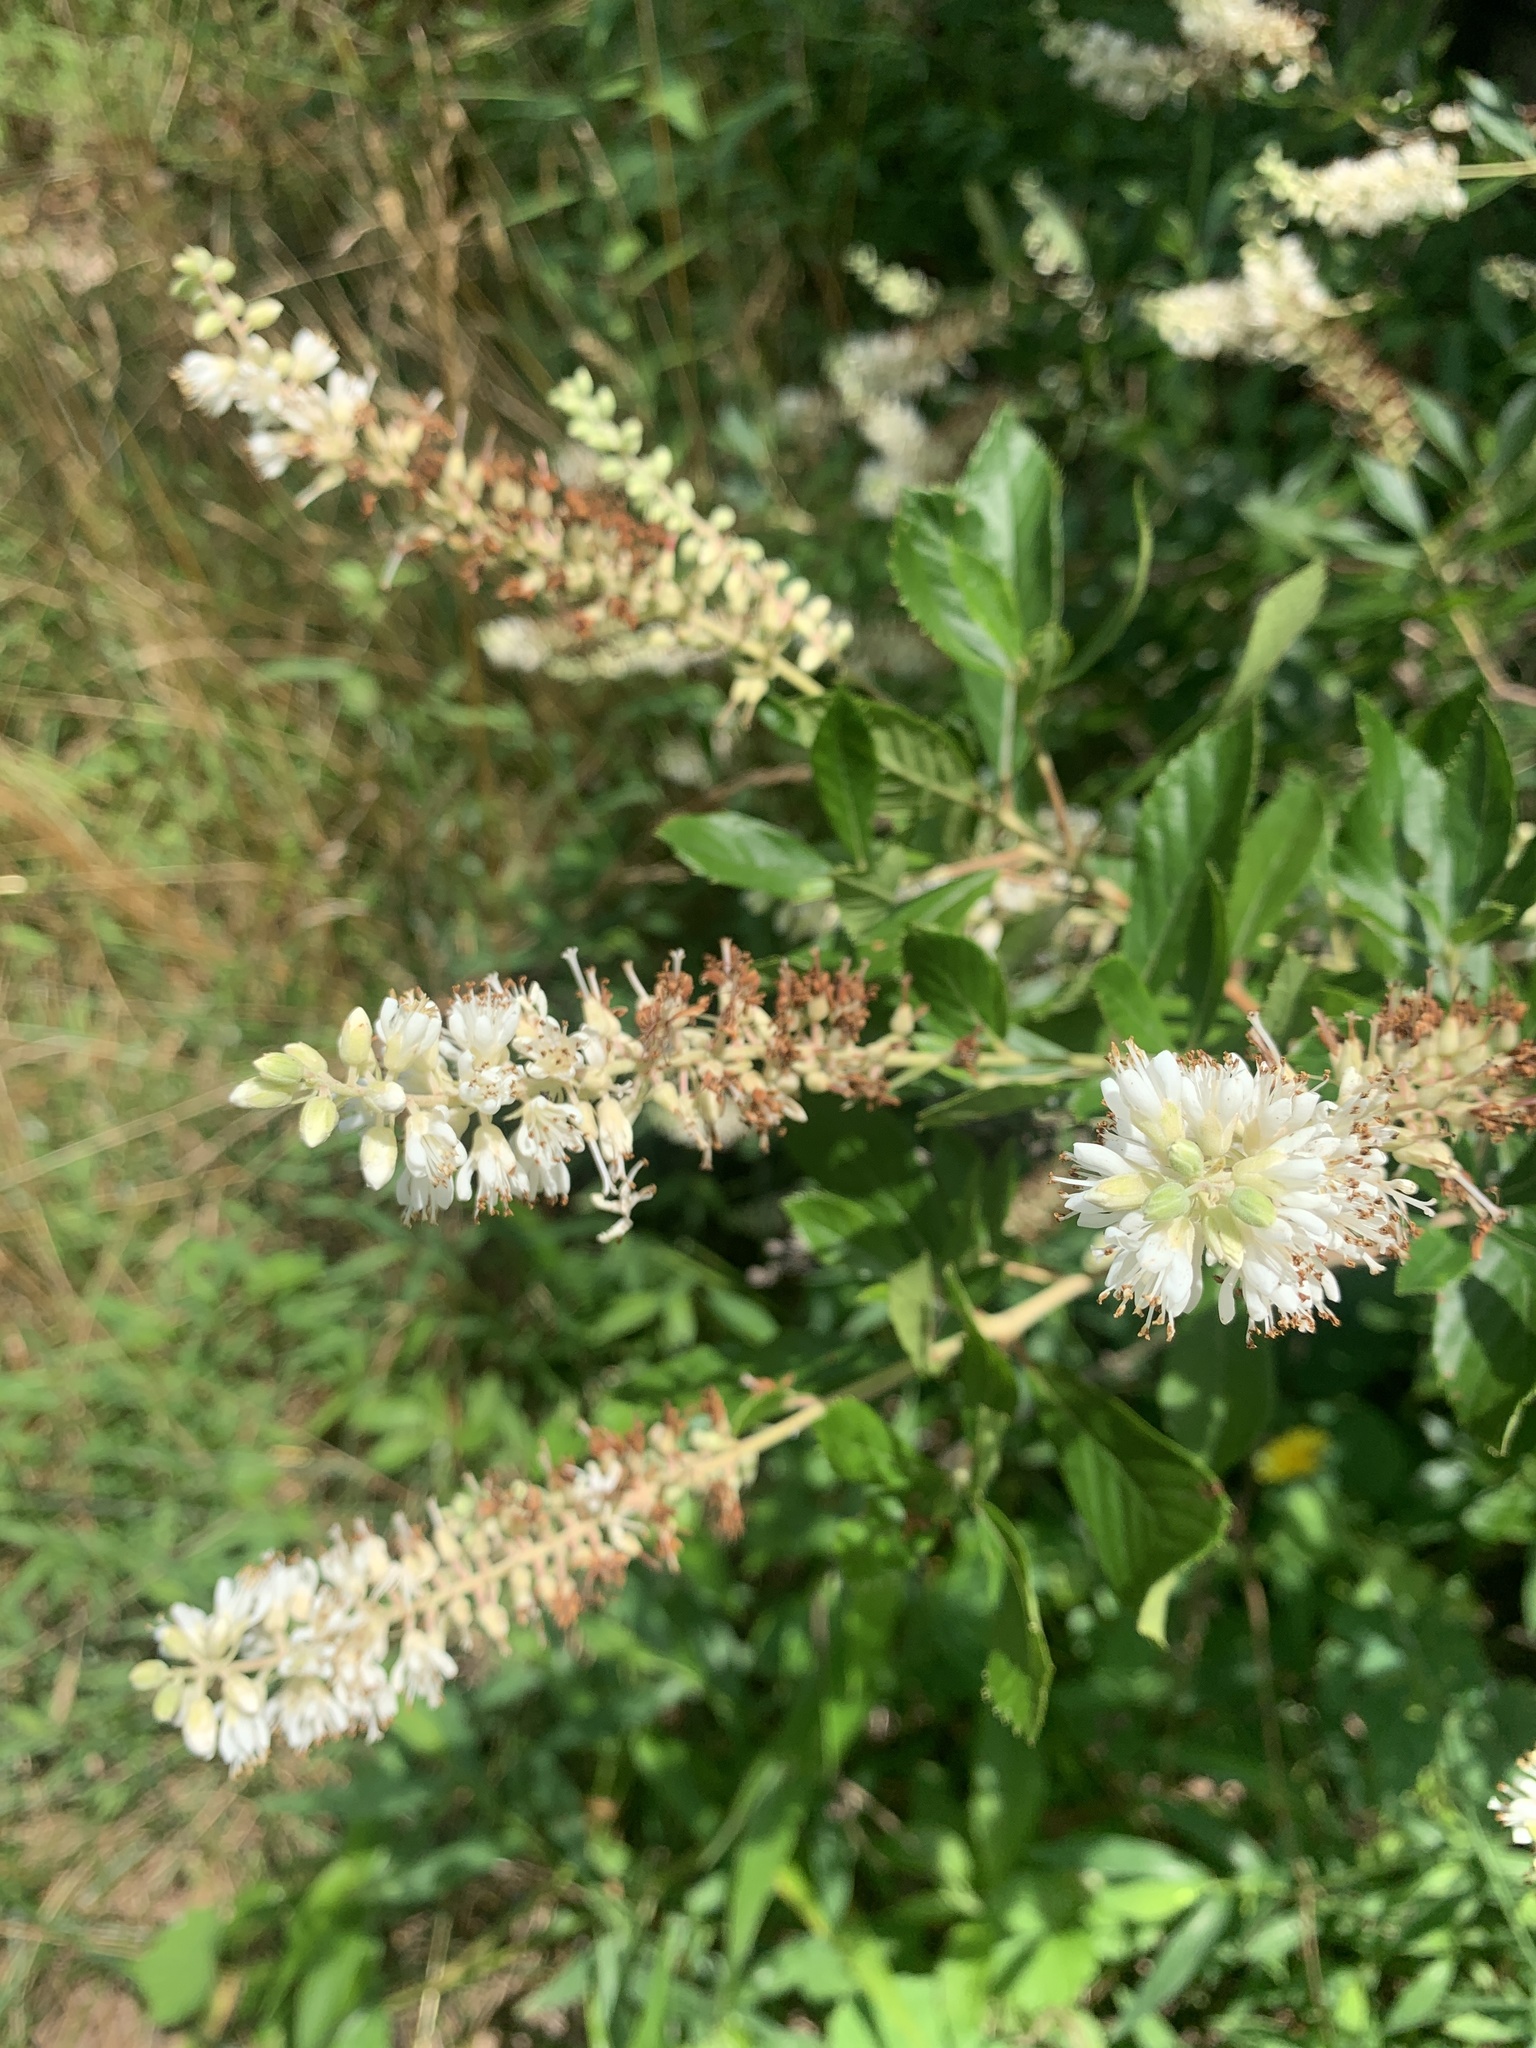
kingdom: Plantae
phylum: Tracheophyta
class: Magnoliopsida
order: Ericales
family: Clethraceae
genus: Clethra
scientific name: Clethra acuminata
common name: Mountain sweet pepperbush
